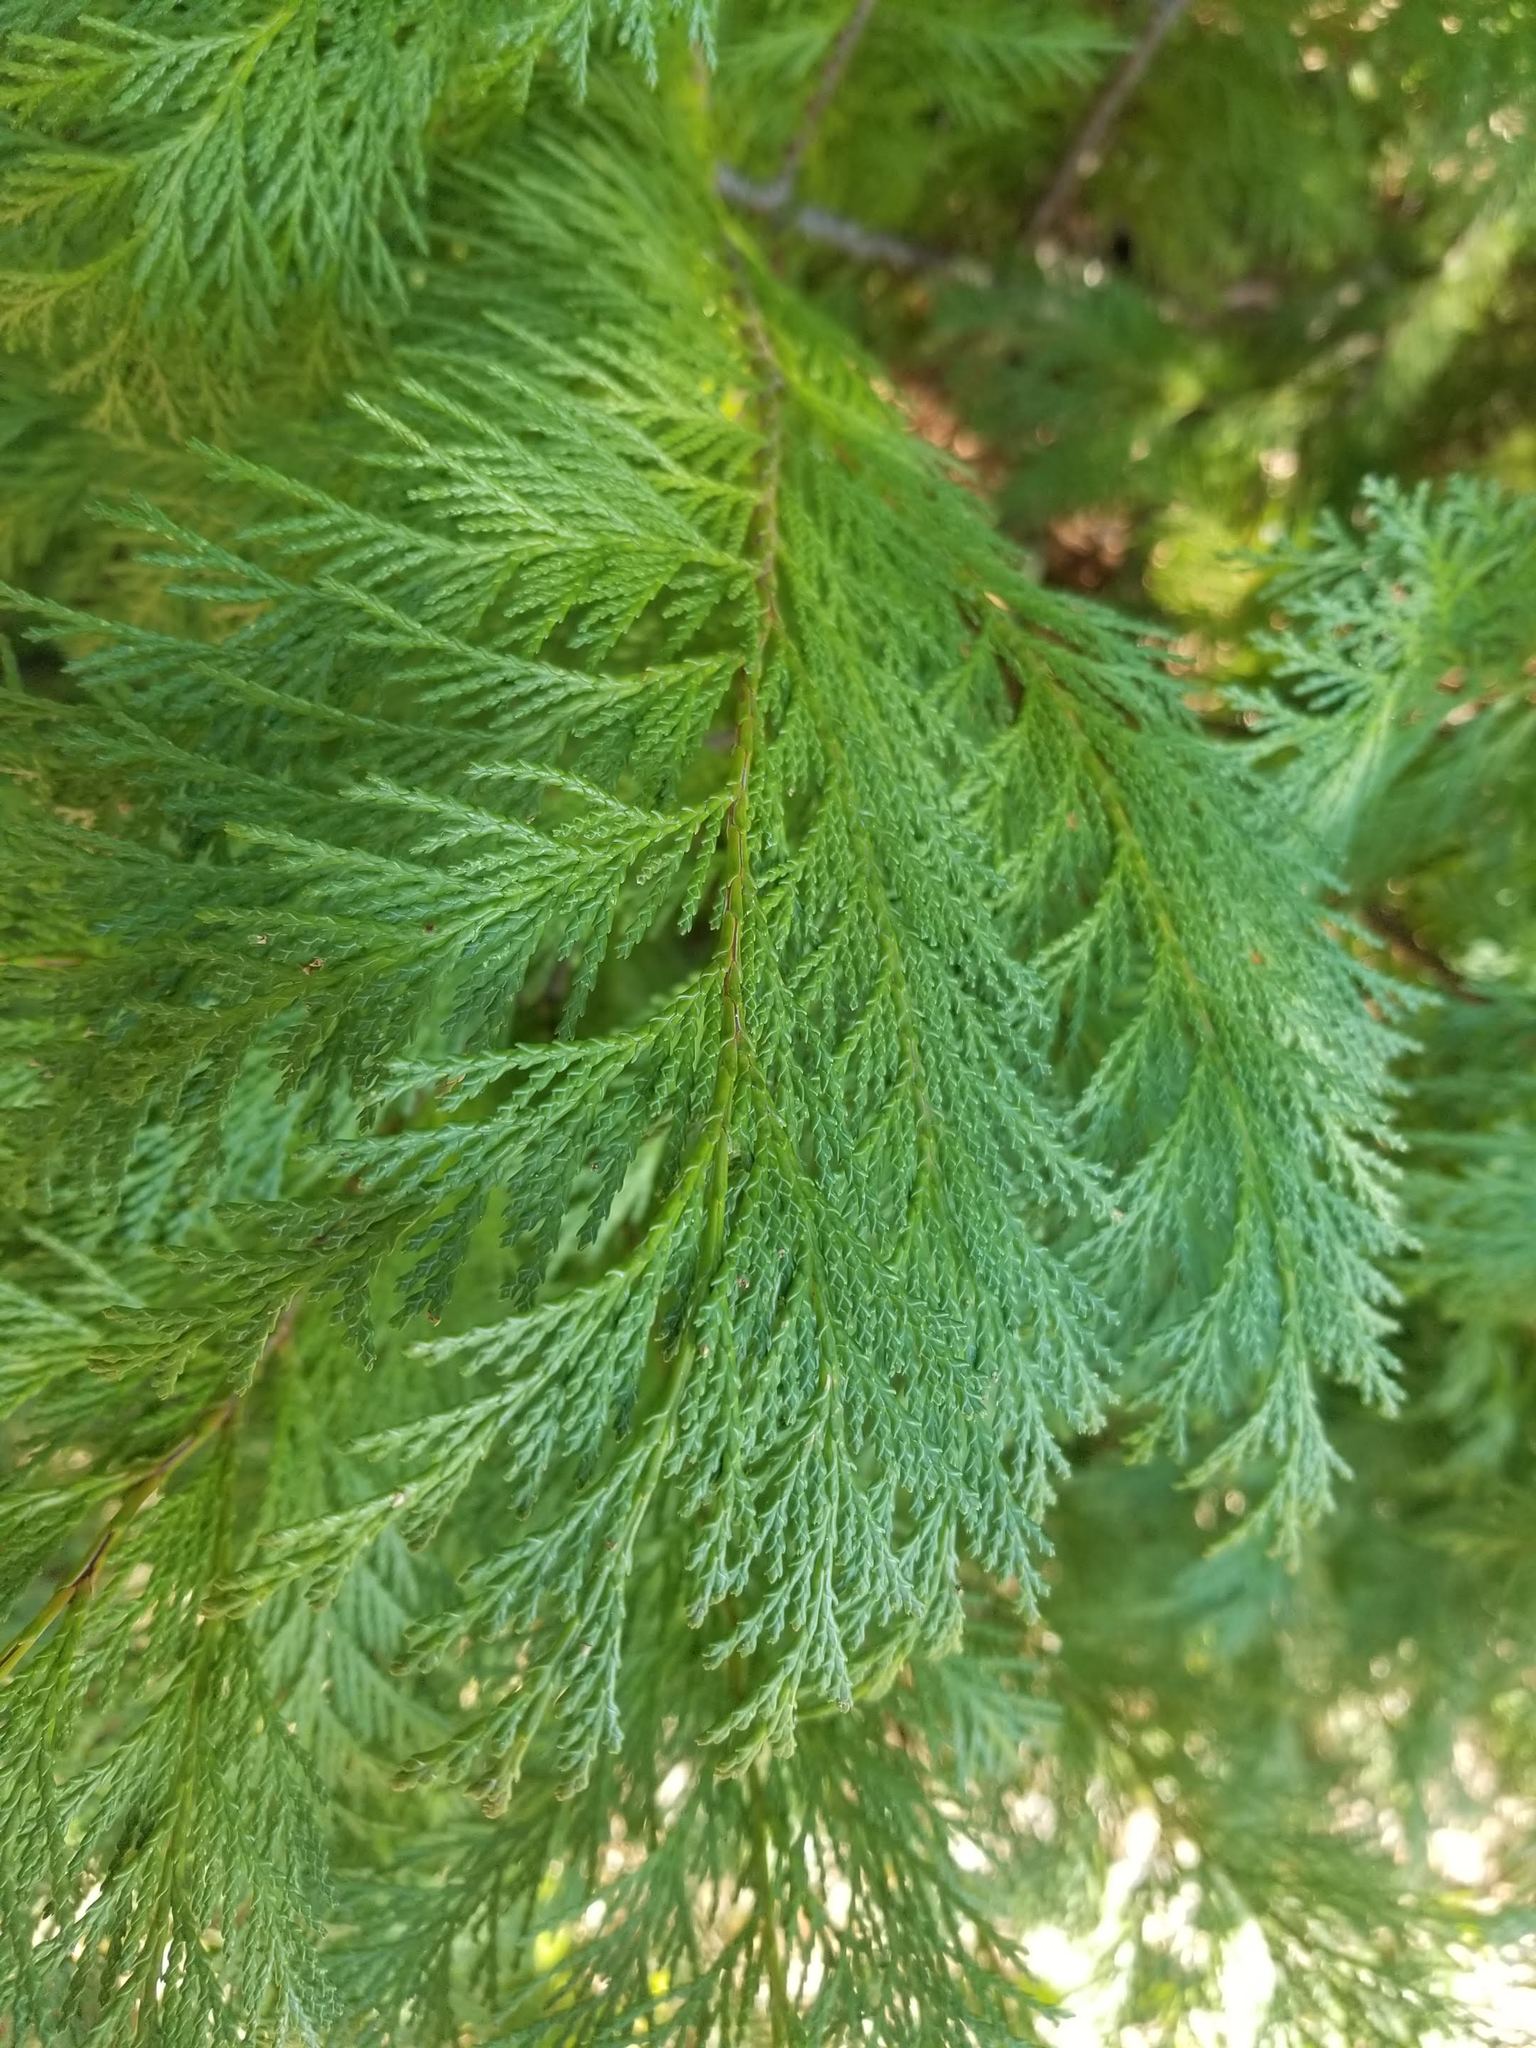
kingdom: Plantae
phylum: Tracheophyta
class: Pinopsida
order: Pinales
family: Cupressaceae
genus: Chamaecyparis
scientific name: Chamaecyparis lawsoniana
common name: Lawson's cypress
